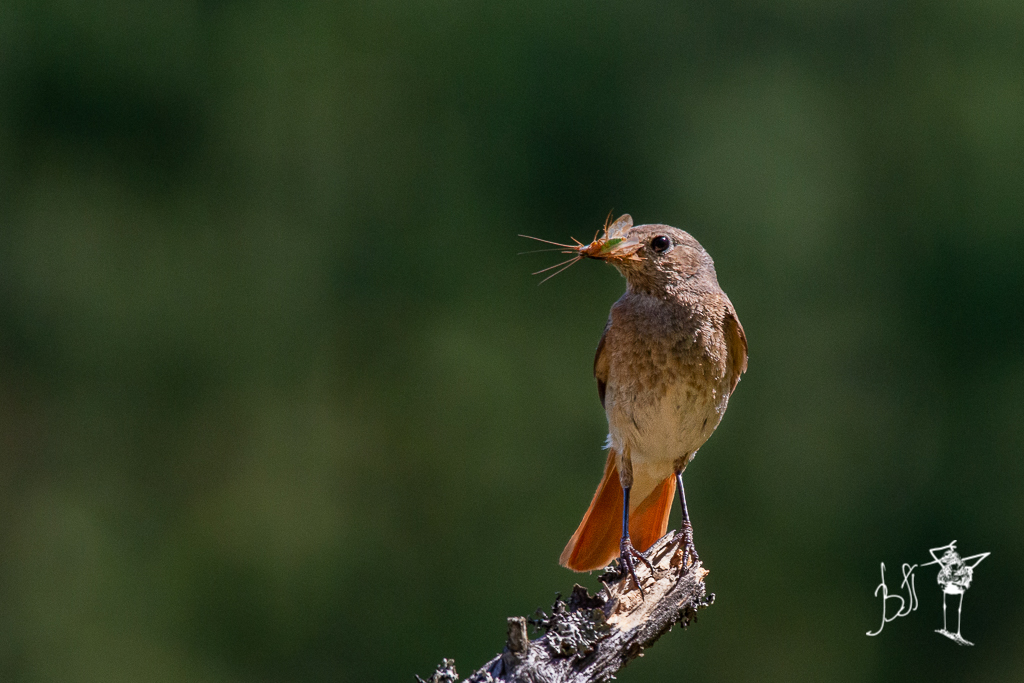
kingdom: Animalia
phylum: Chordata
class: Aves
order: Passeriformes
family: Muscicapidae
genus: Phoenicurus
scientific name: Phoenicurus phoenicurus
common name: Common redstart
